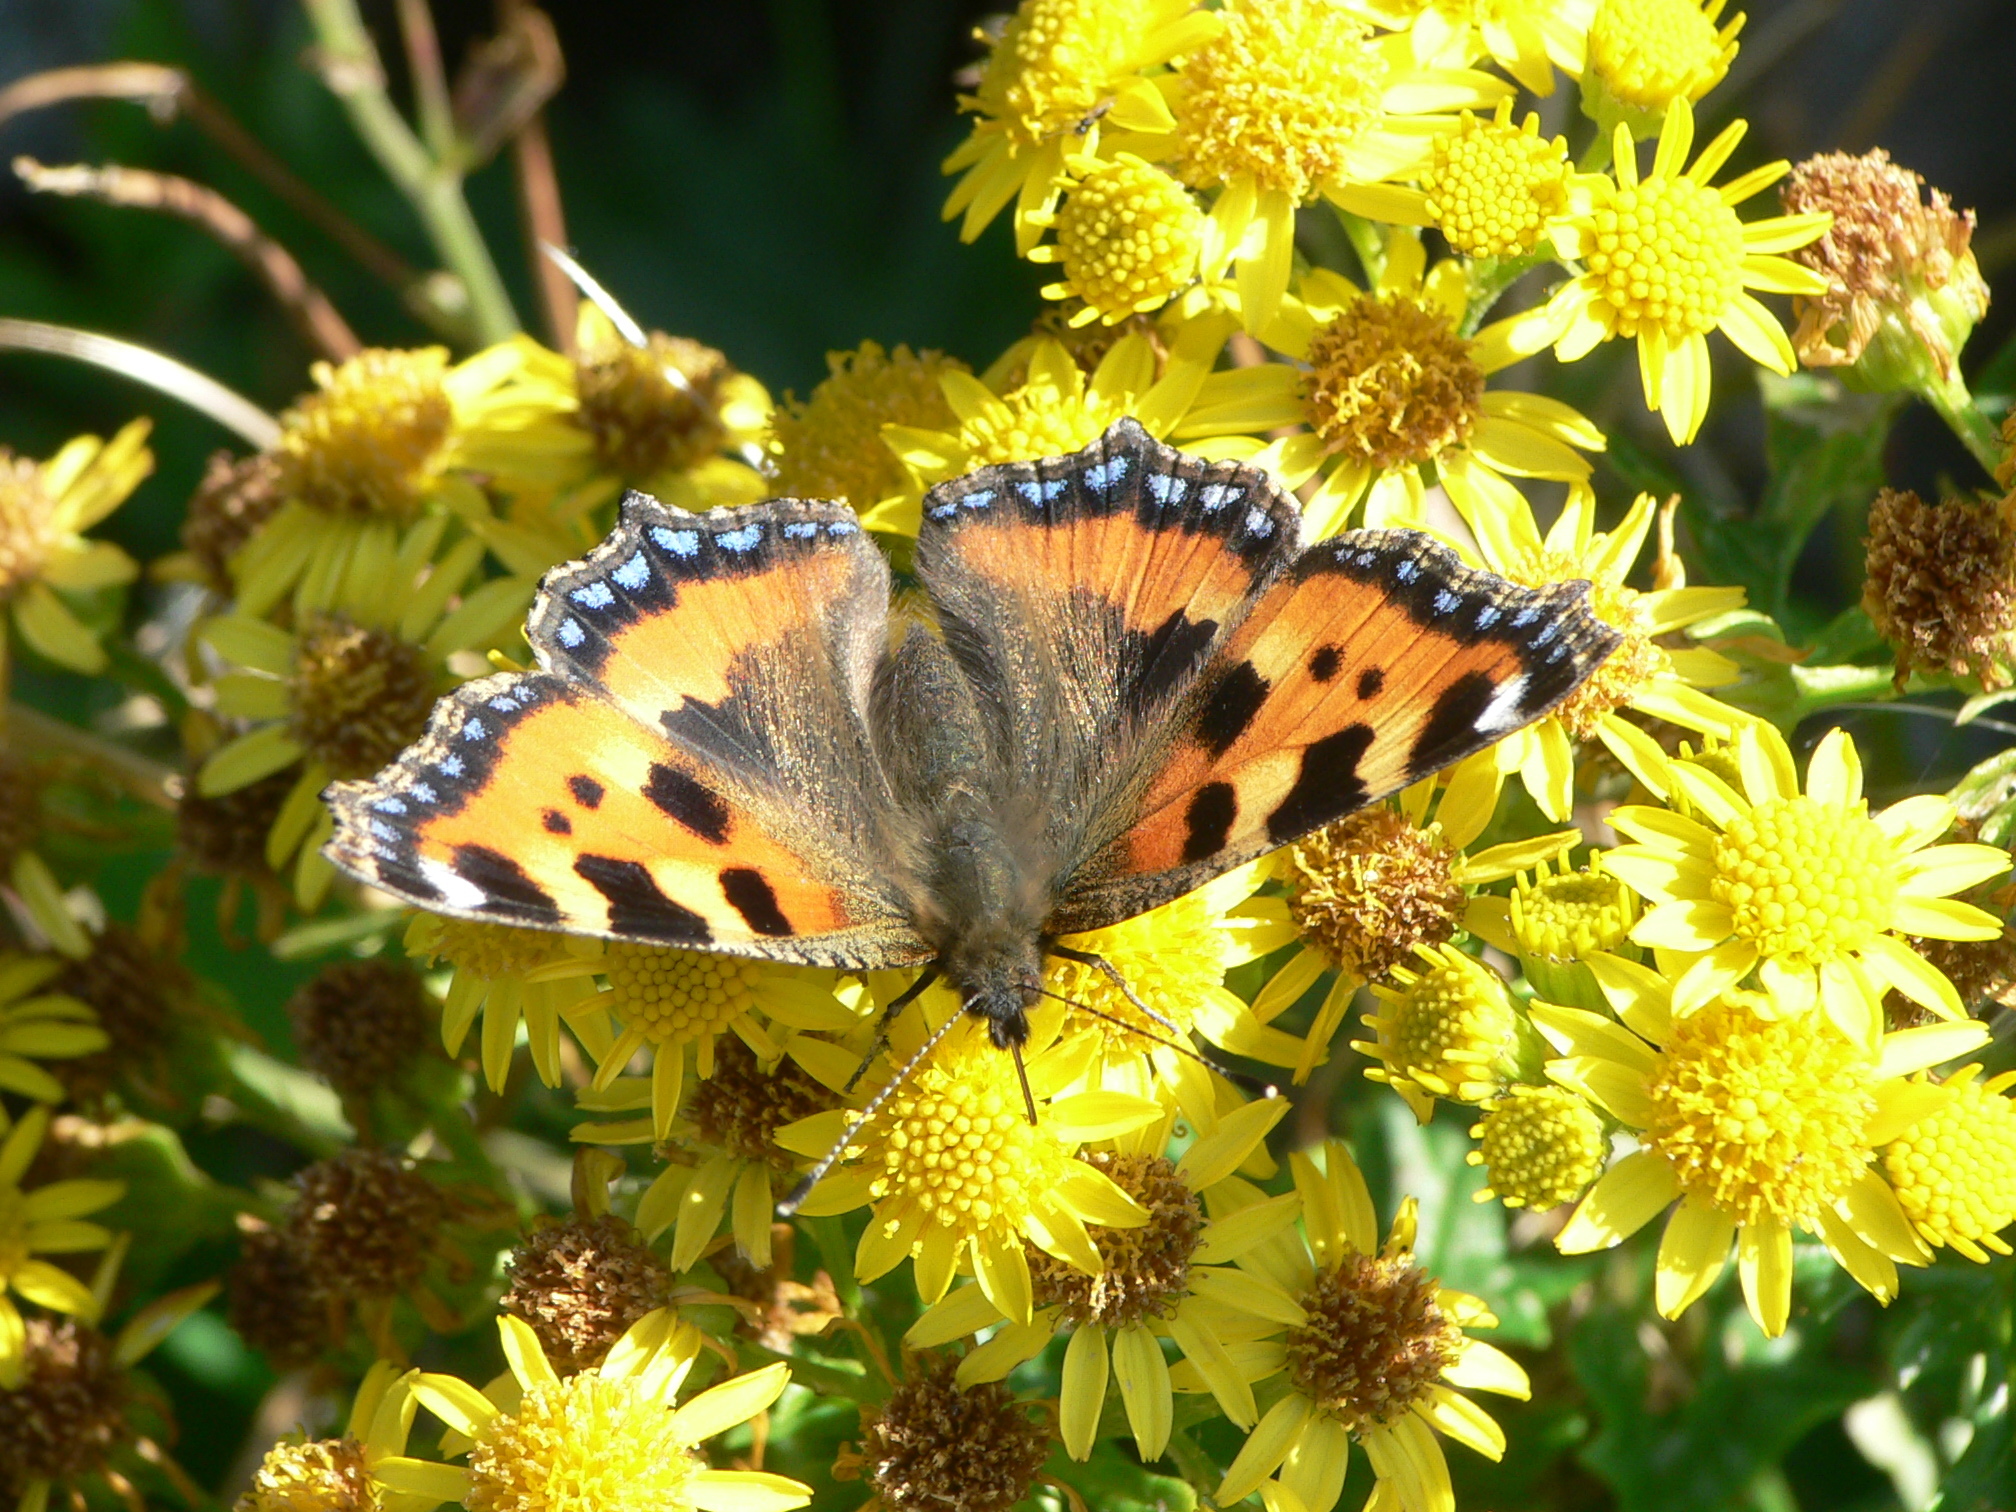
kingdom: Animalia
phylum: Arthropoda
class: Insecta
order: Lepidoptera
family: Nymphalidae
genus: Aglais
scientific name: Aglais urticae
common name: Small tortoiseshell
